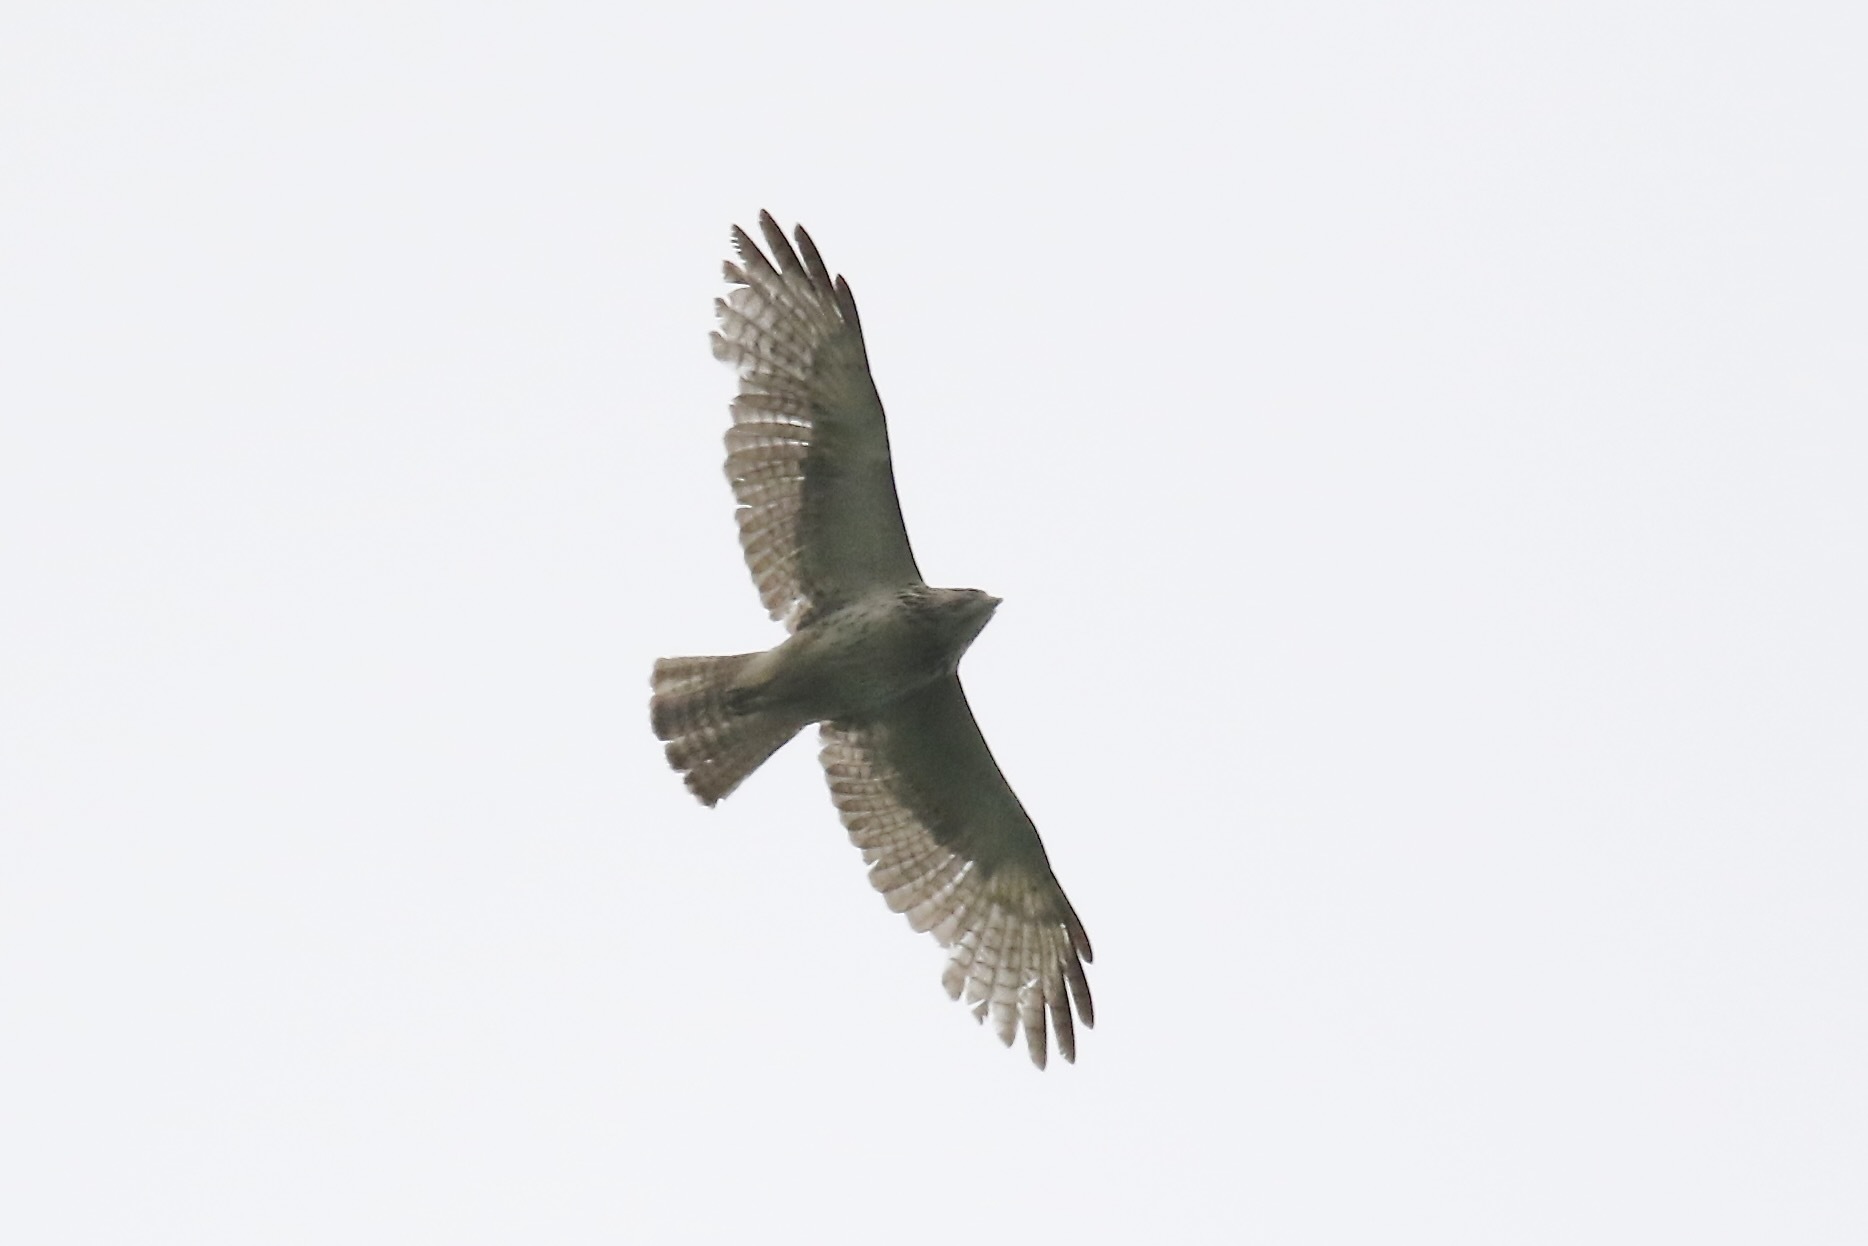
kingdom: Animalia
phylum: Chordata
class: Aves
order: Accipitriformes
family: Accipitridae
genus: Buteo
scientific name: Buteo platypterus
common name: Broad-winged hawk
